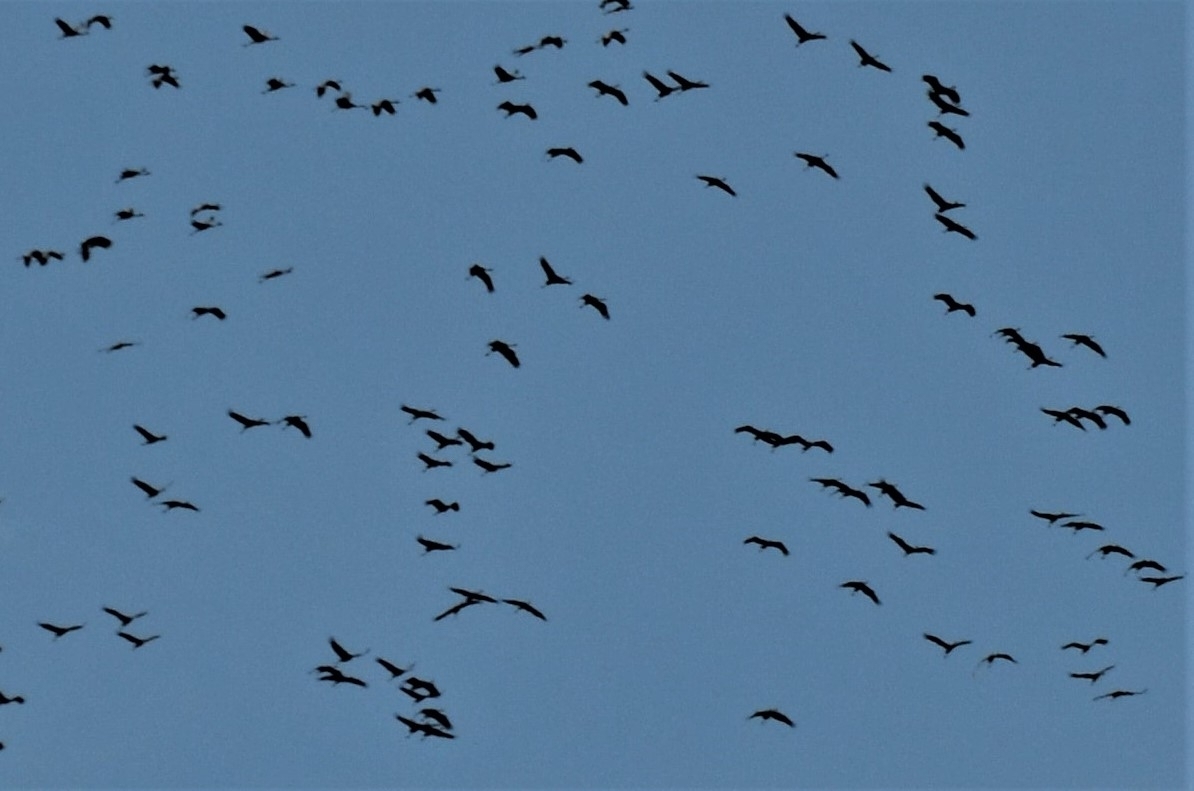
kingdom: Animalia
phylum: Chordata
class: Aves
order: Gruiformes
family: Gruidae
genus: Grus
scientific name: Grus grus
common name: Common crane
